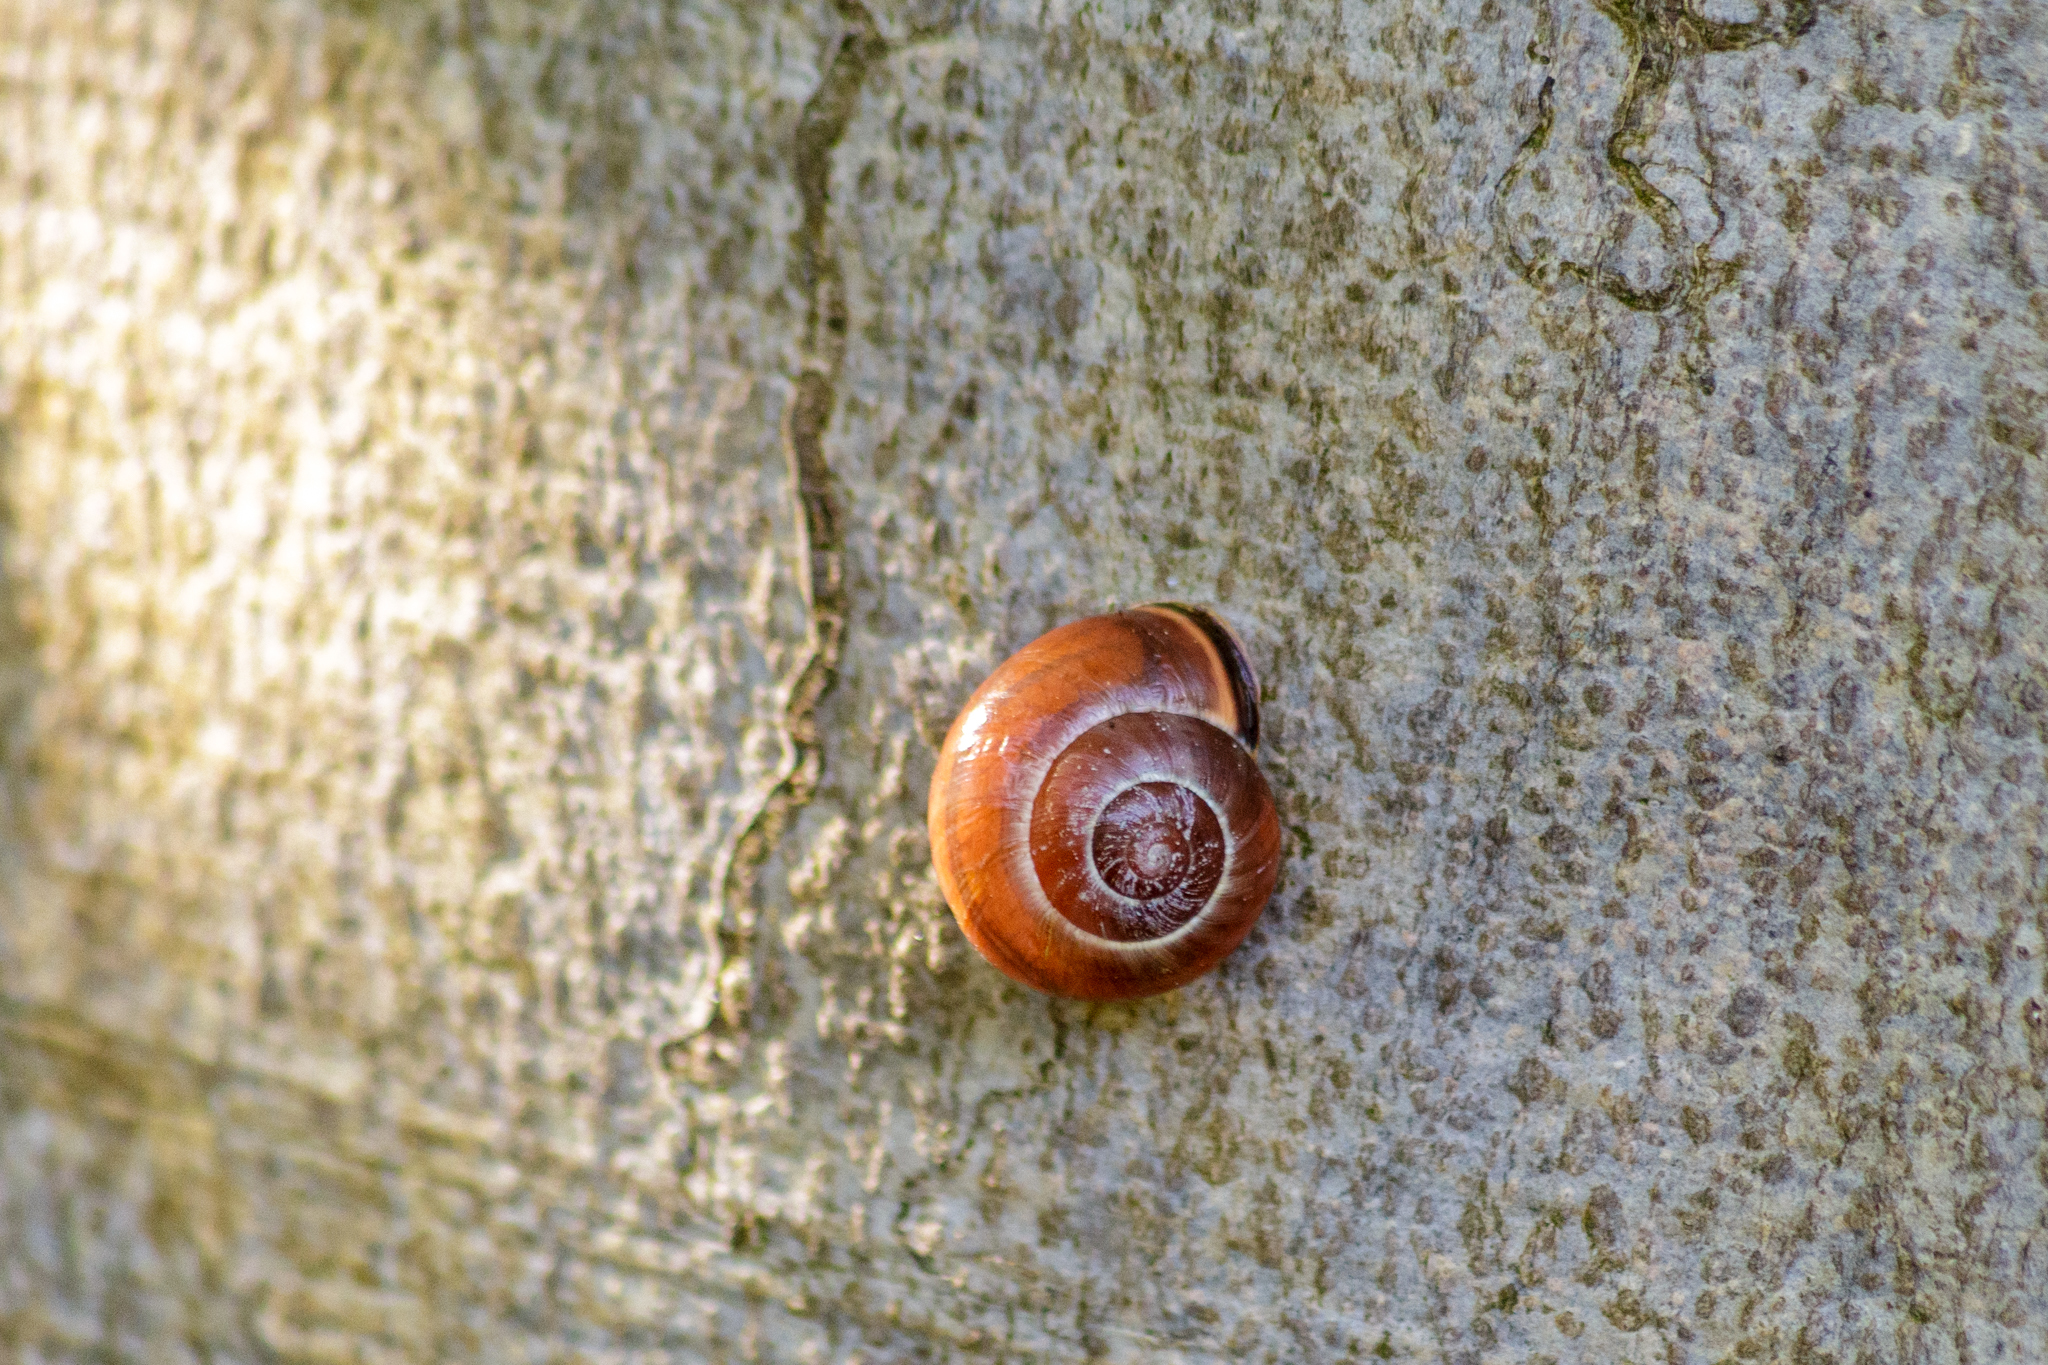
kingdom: Animalia
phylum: Mollusca
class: Gastropoda
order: Stylommatophora
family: Helicidae
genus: Cepaea
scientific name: Cepaea nemoralis
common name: Grovesnail
